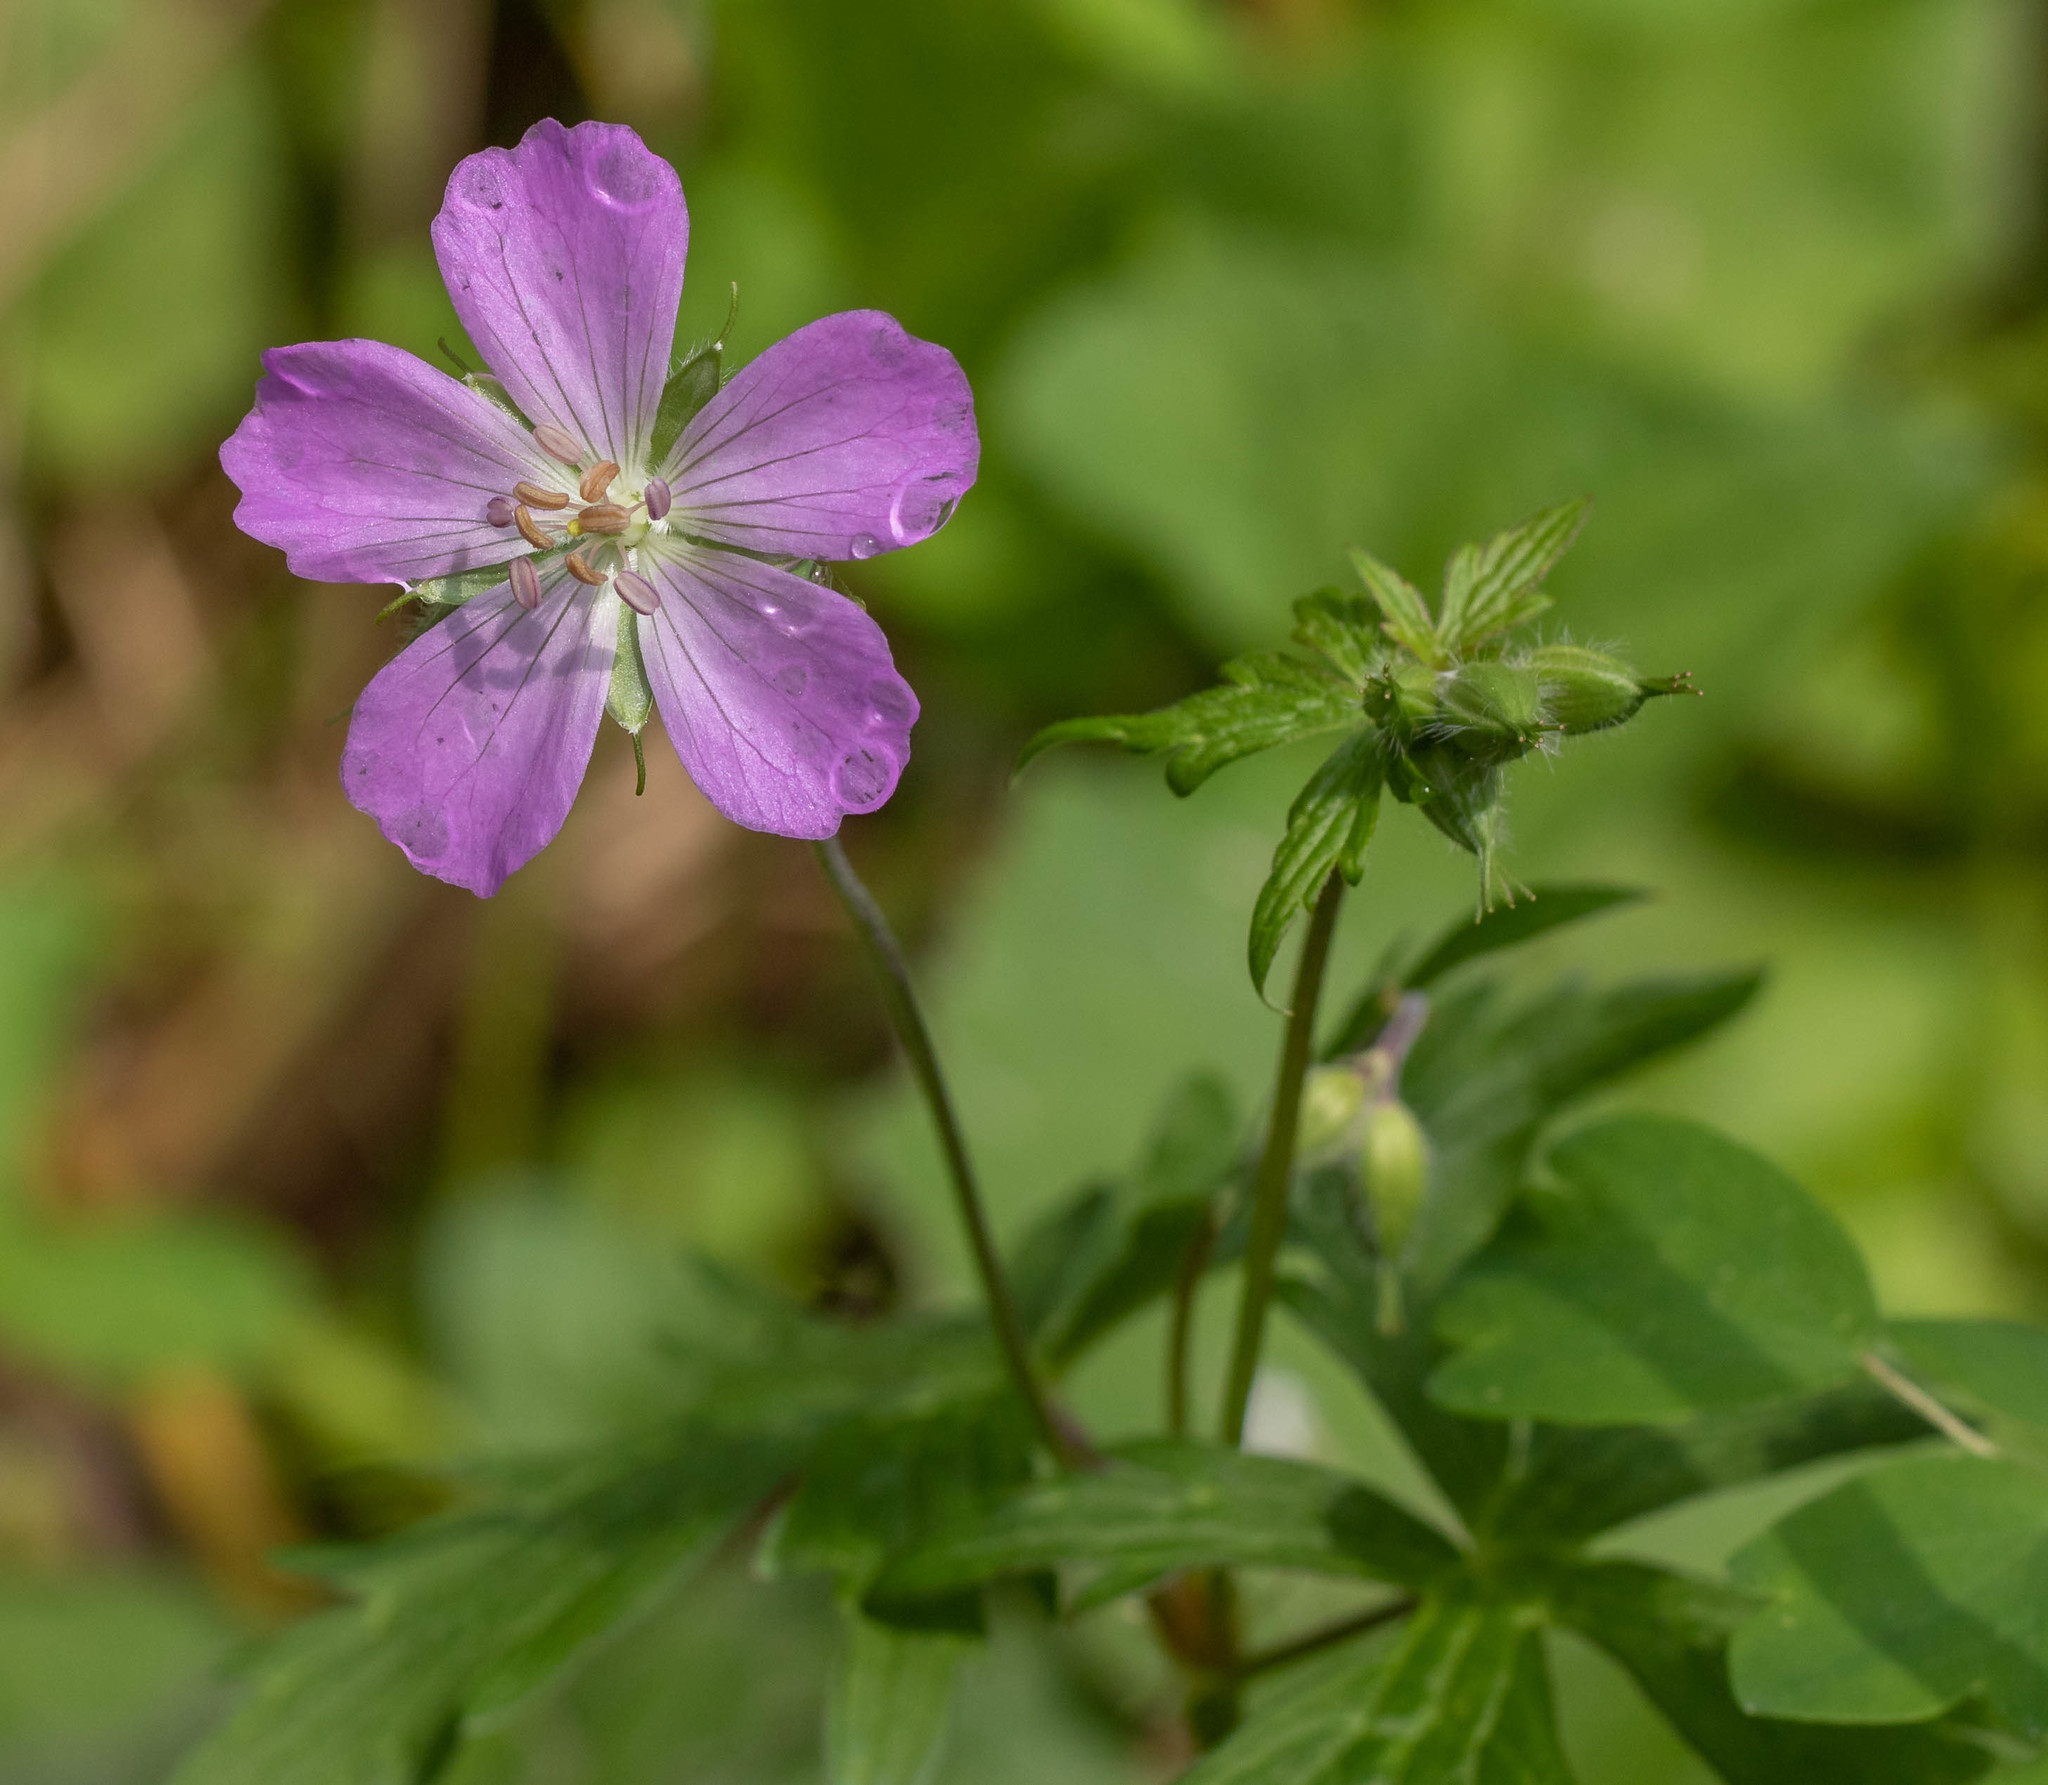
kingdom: Plantae
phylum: Tracheophyta
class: Magnoliopsida
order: Geraniales
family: Geraniaceae
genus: Geranium
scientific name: Geranium maculatum
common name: Spotted geranium
